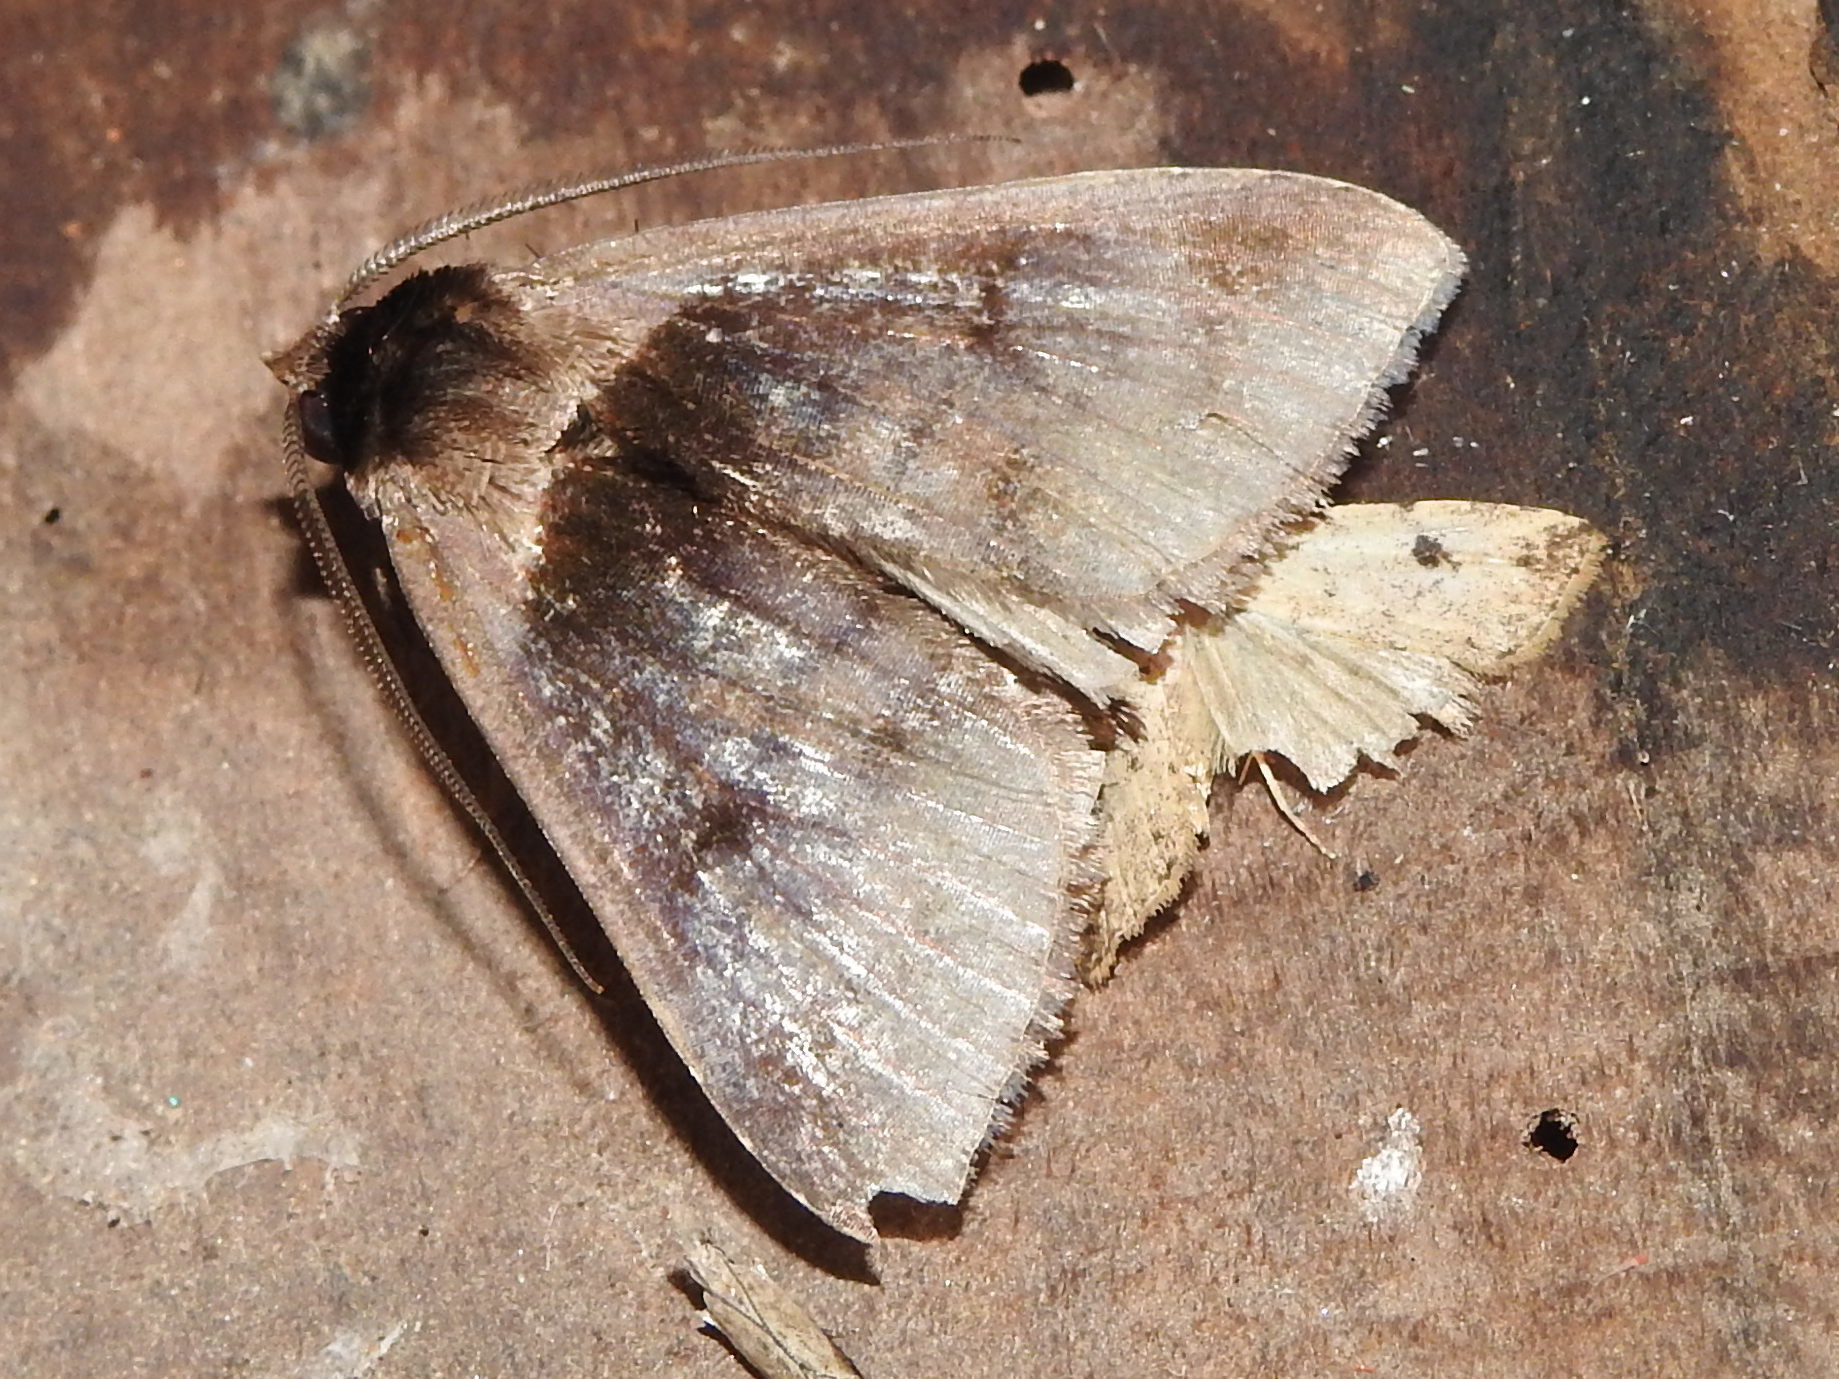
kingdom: Animalia
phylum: Arthropoda
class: Insecta
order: Lepidoptera
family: Erebidae
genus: Crithote
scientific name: Crithote pallivaga
